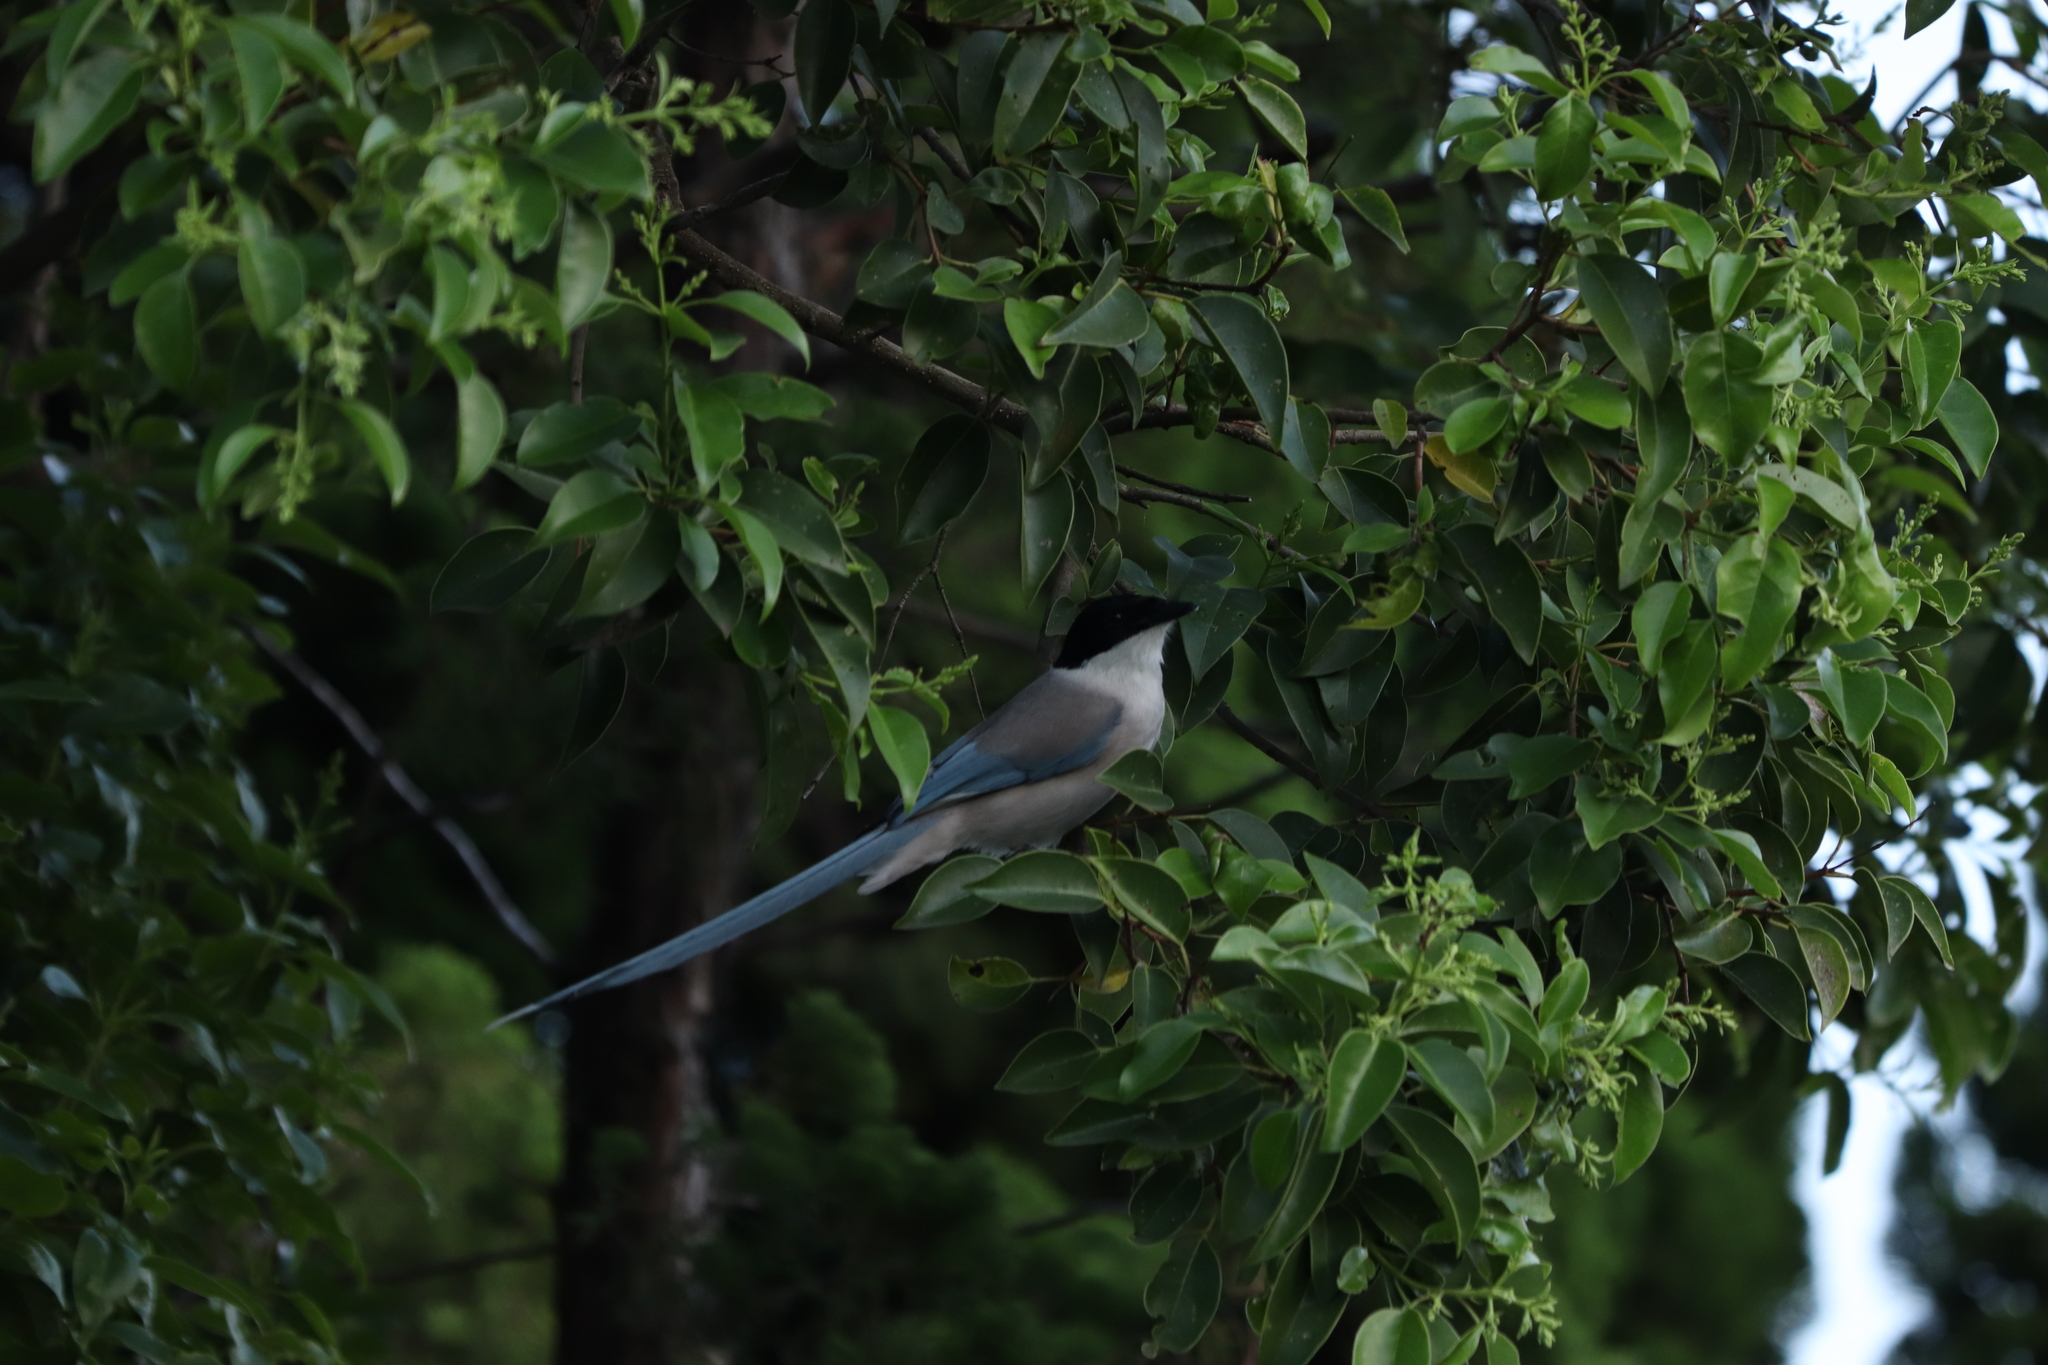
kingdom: Animalia
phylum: Chordata
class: Aves
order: Passeriformes
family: Corvidae
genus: Cyanopica
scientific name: Cyanopica cyanus
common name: Azure-winged magpie
